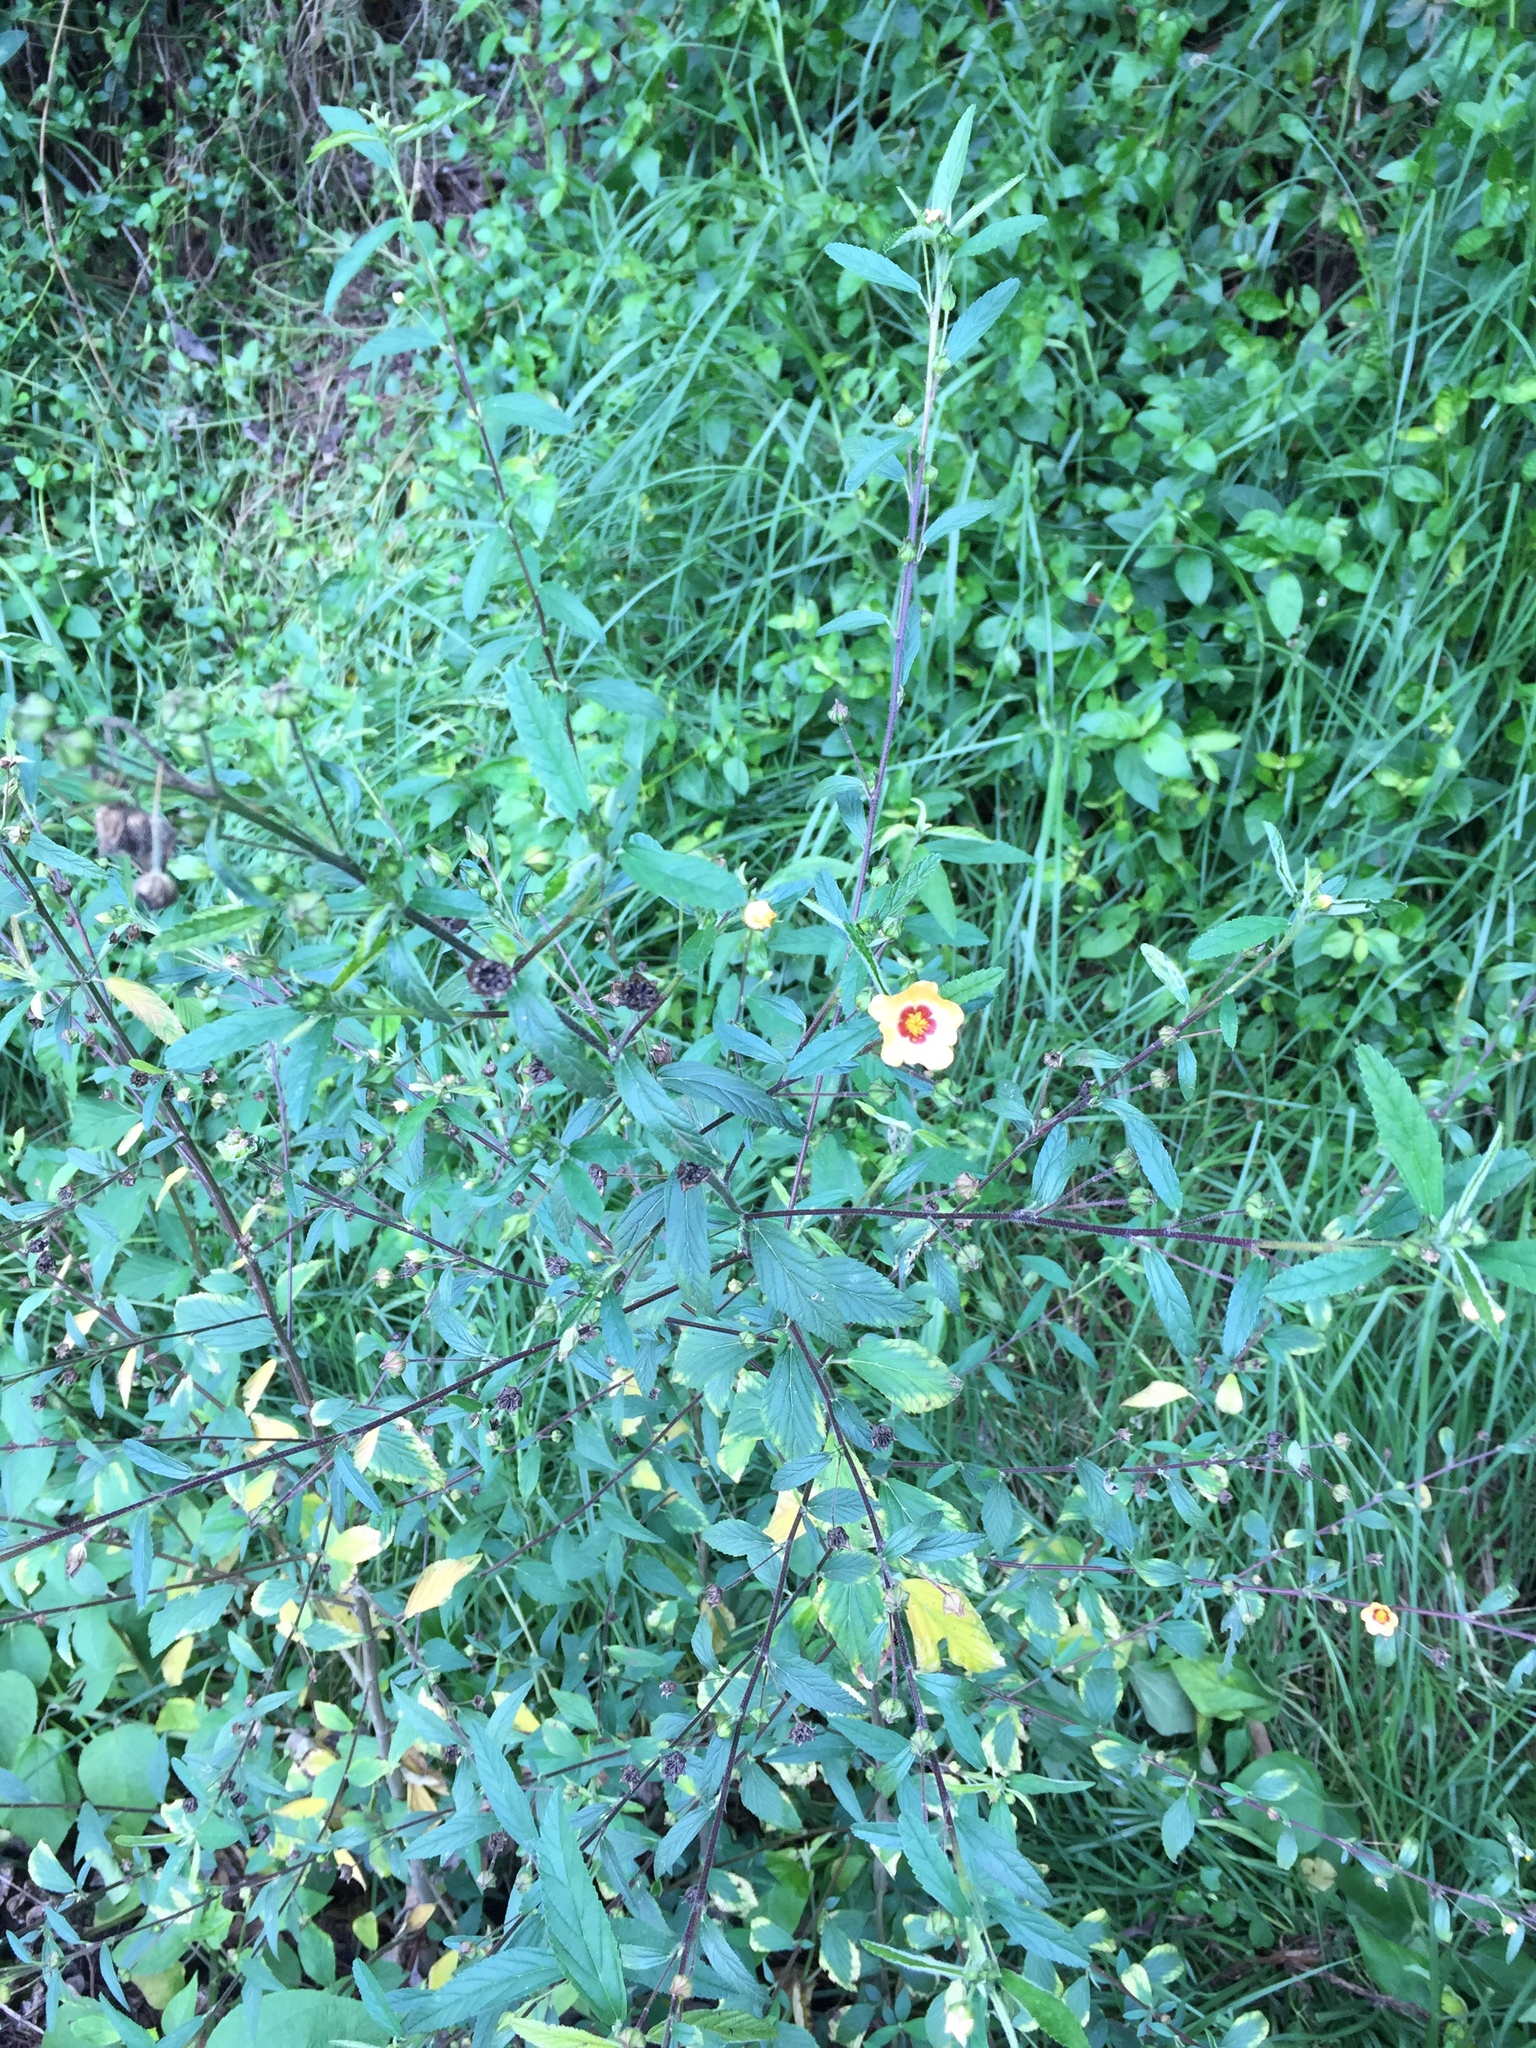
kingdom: Plantae
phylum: Tracheophyta
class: Magnoliopsida
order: Malvales
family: Malvaceae
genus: Sida
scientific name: Sida rhombifolia
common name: Queensland-hemp
